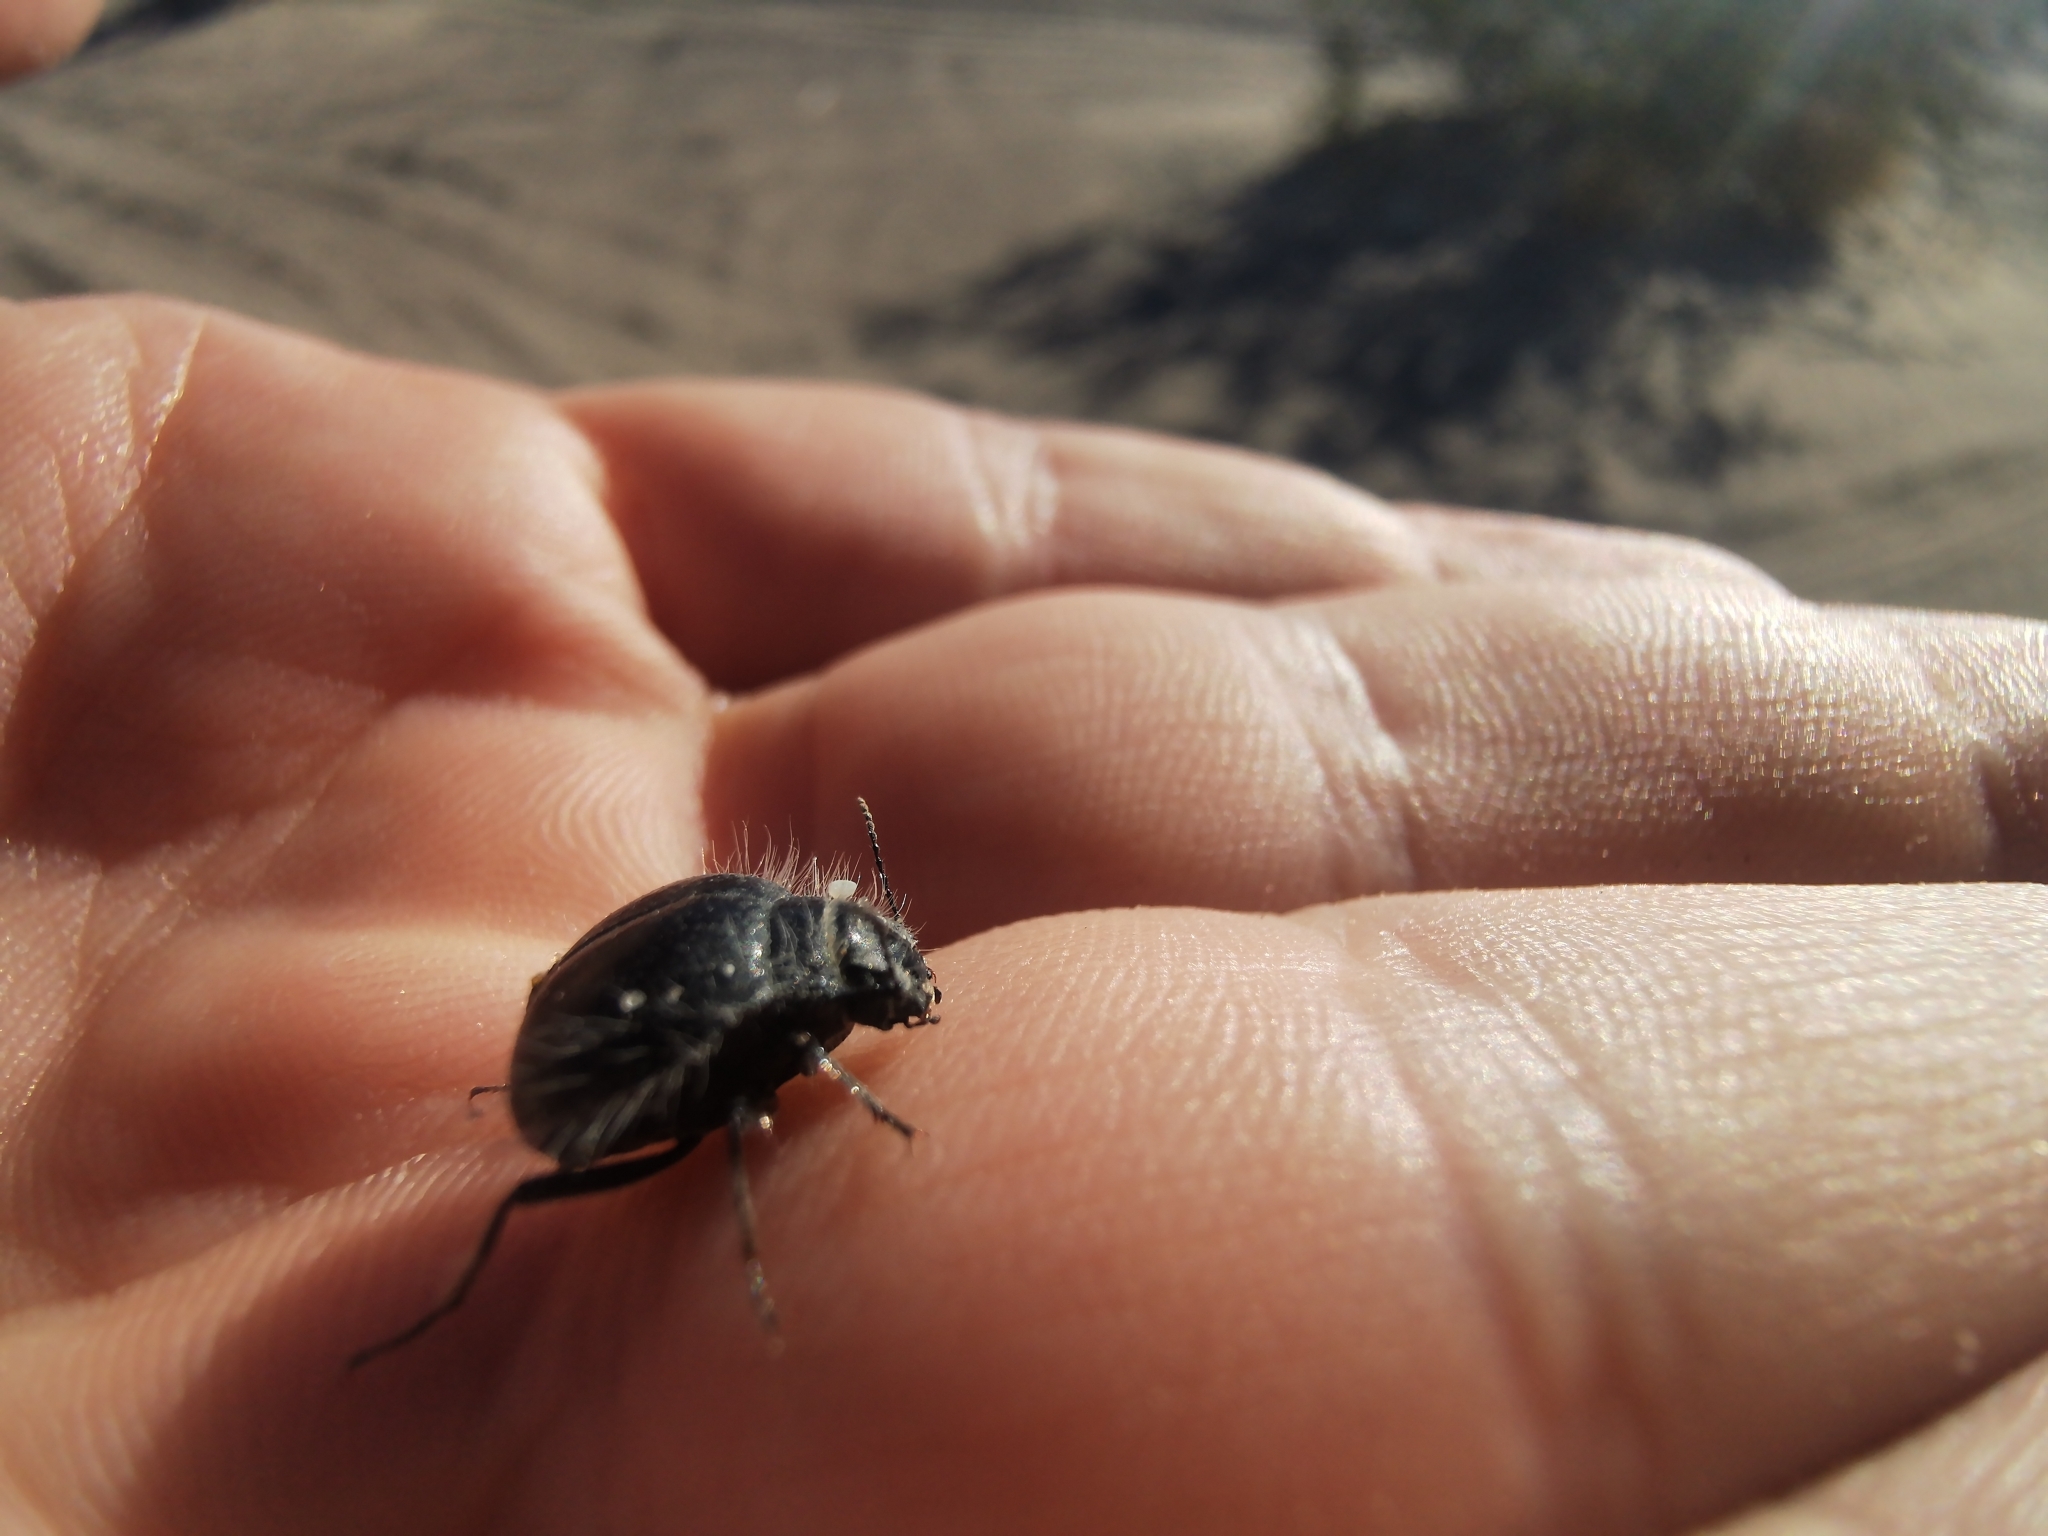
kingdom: Animalia
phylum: Arthropoda
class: Insecta
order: Coleoptera
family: Tenebrionidae
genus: Edrotes
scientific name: Edrotes ventricosus
